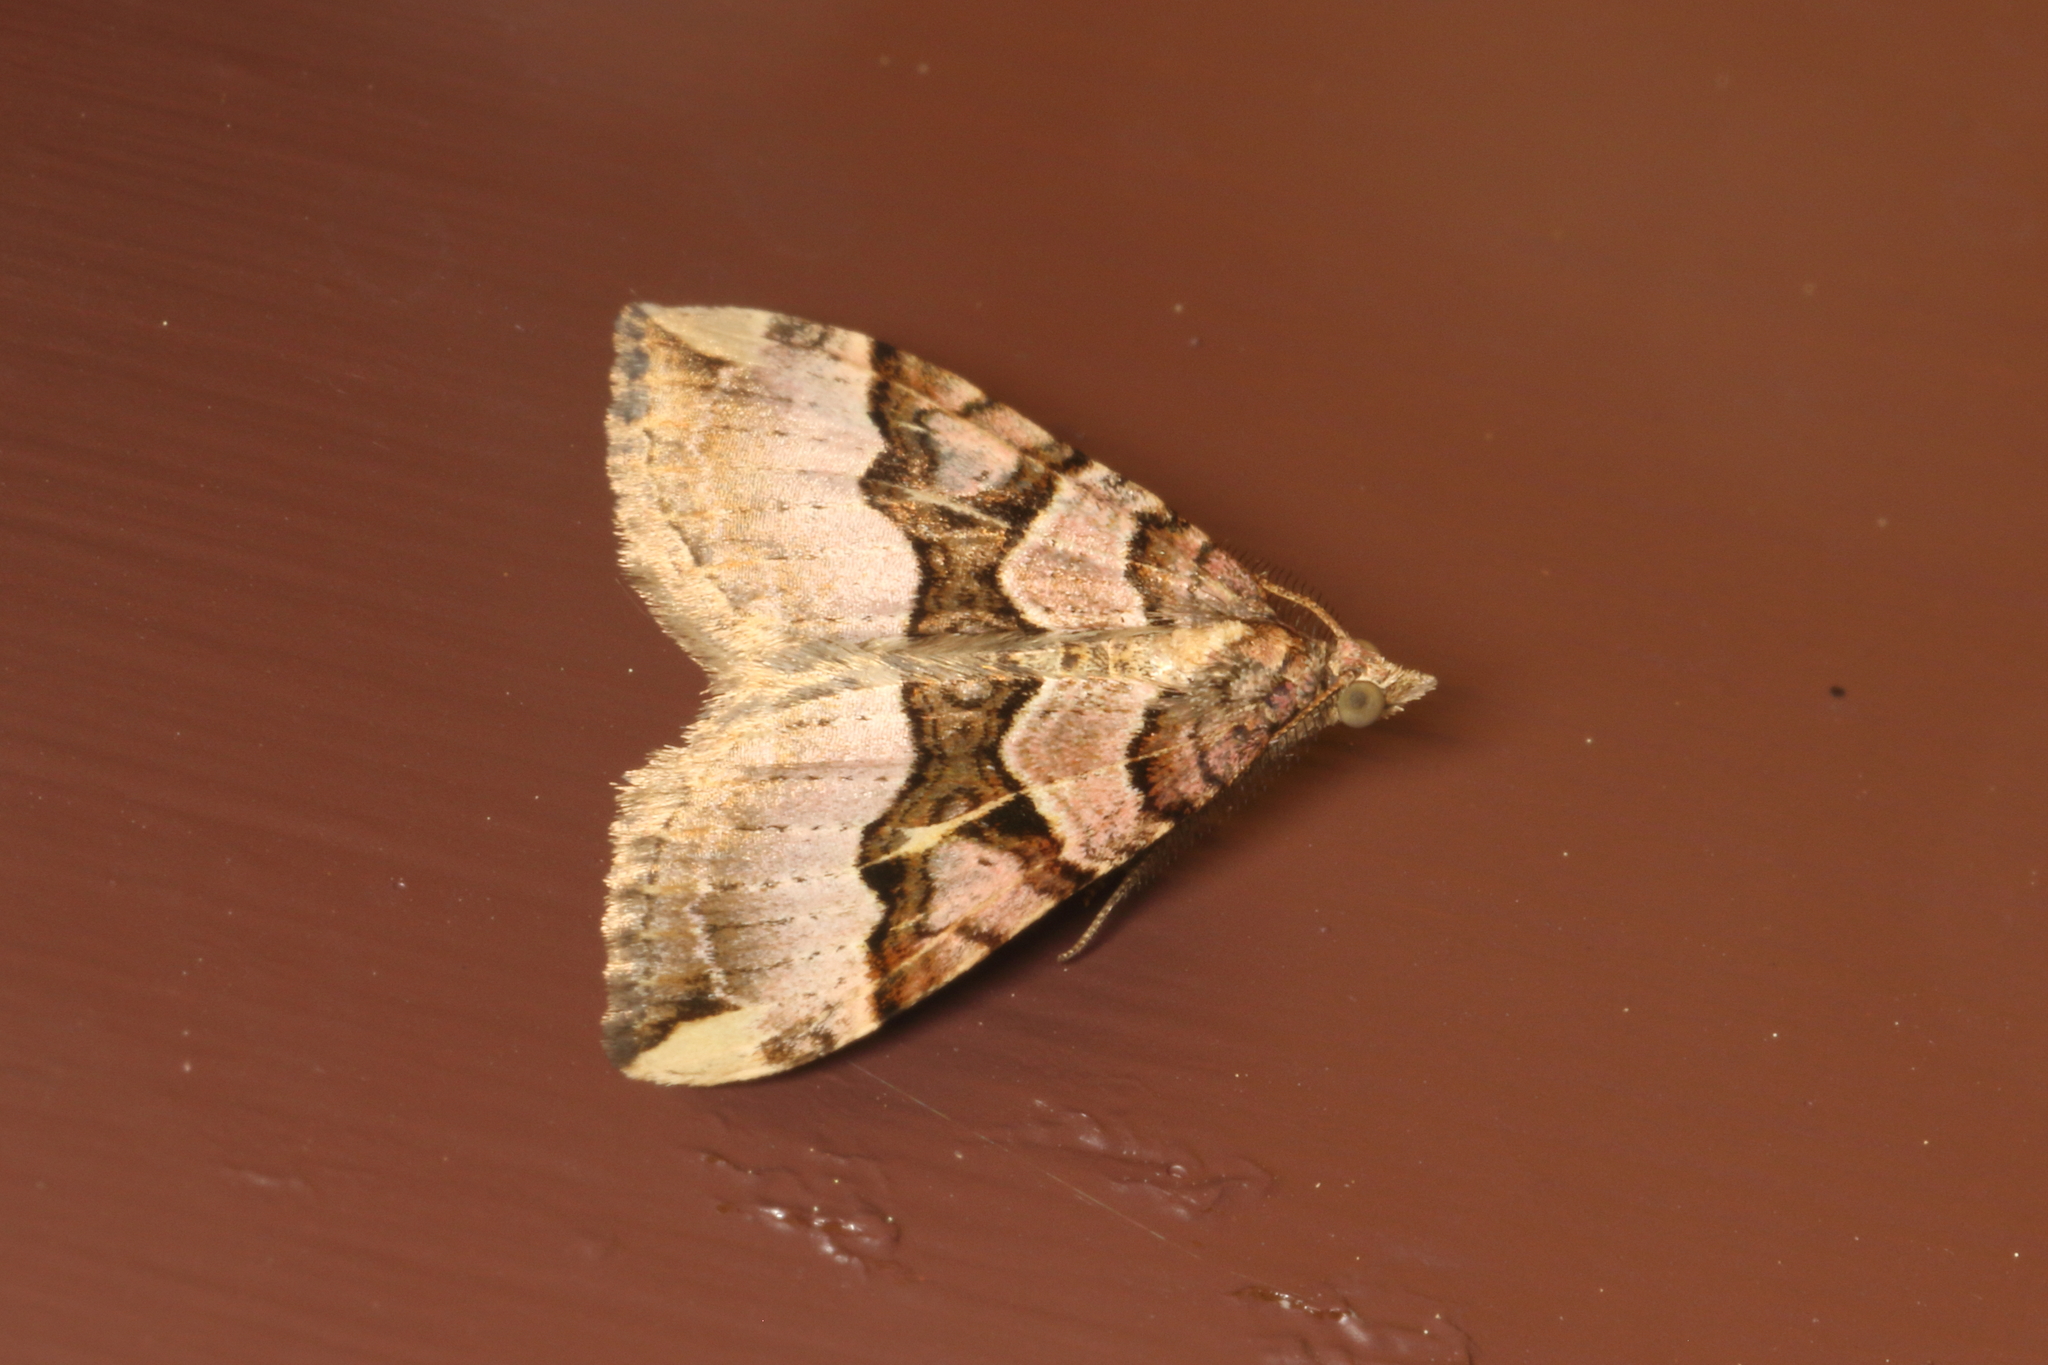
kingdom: Animalia
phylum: Arthropoda
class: Insecta
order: Lepidoptera
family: Geometridae
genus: Xanthorhoe
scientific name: Xanthorhoe semifissata
